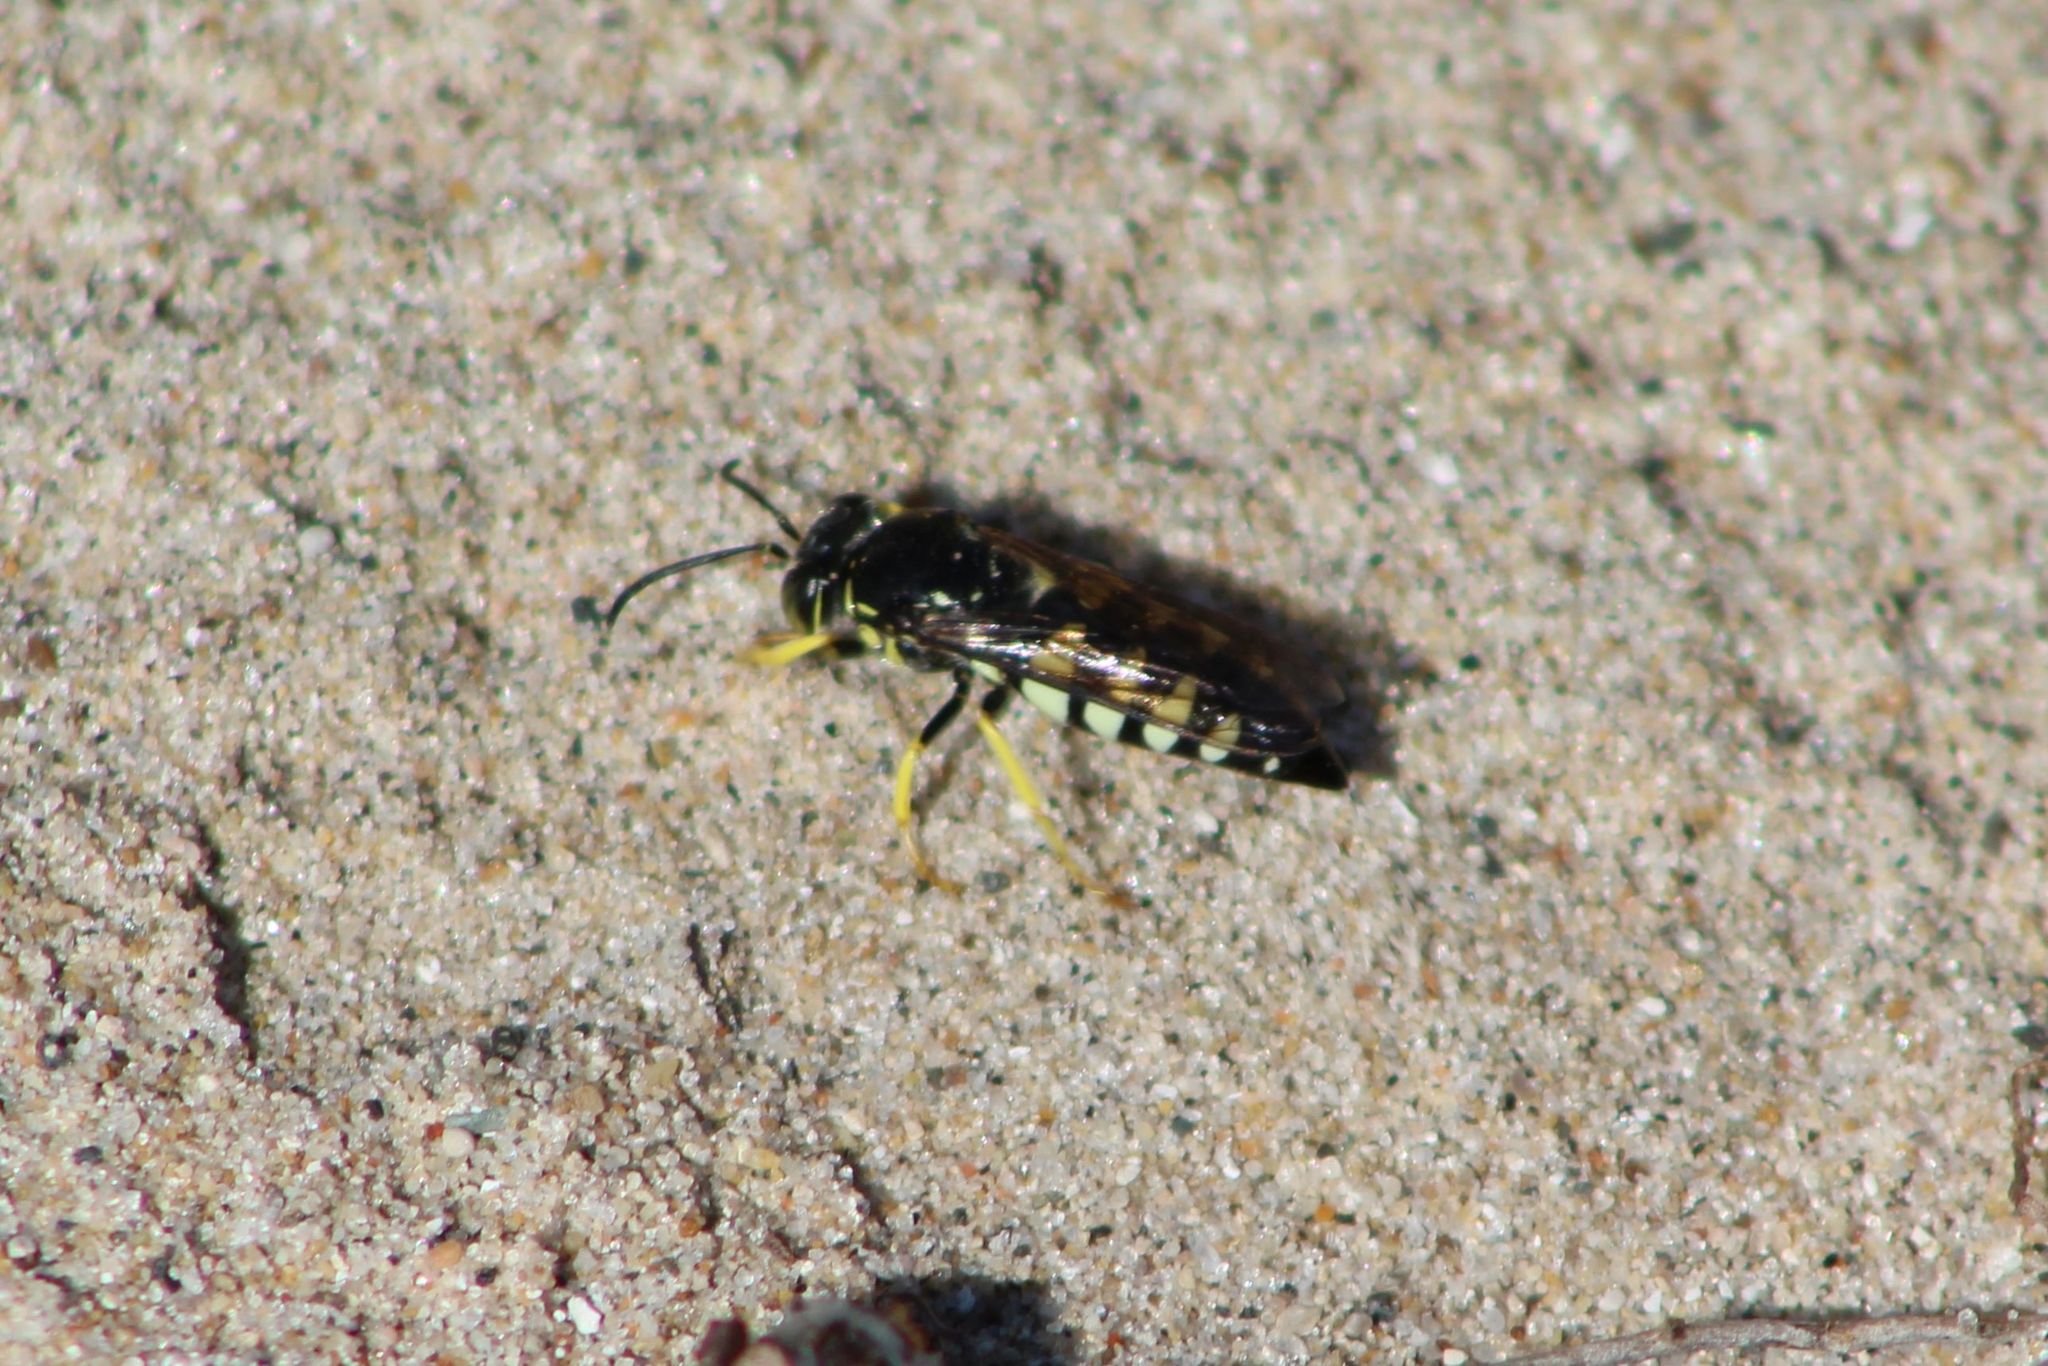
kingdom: Animalia
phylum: Arthropoda
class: Insecta
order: Hymenoptera
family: Crabronidae
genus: Bicyrtes
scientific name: Bicyrtes quadrifasciatus
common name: Four-banded stink bug hunter wasp
